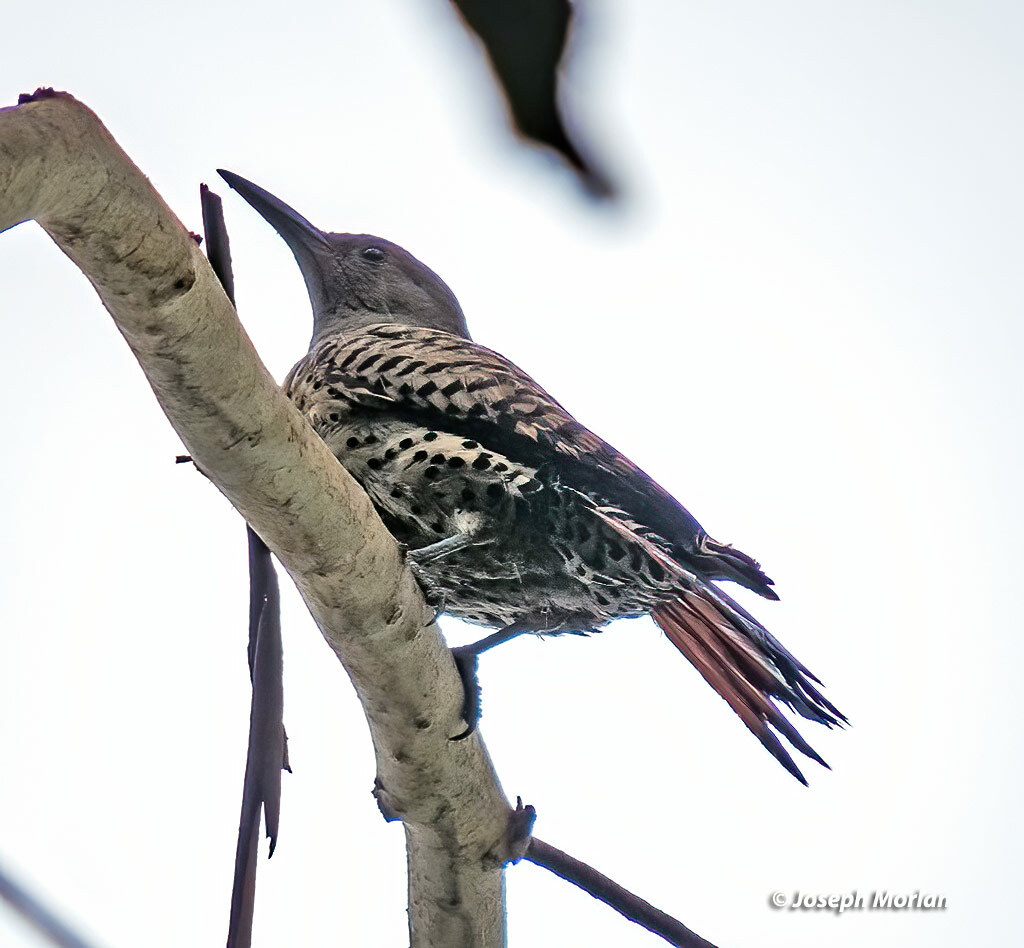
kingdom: Animalia
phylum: Chordata
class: Aves
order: Piciformes
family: Picidae
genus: Colaptes
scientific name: Colaptes auratus
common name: Northern flicker
